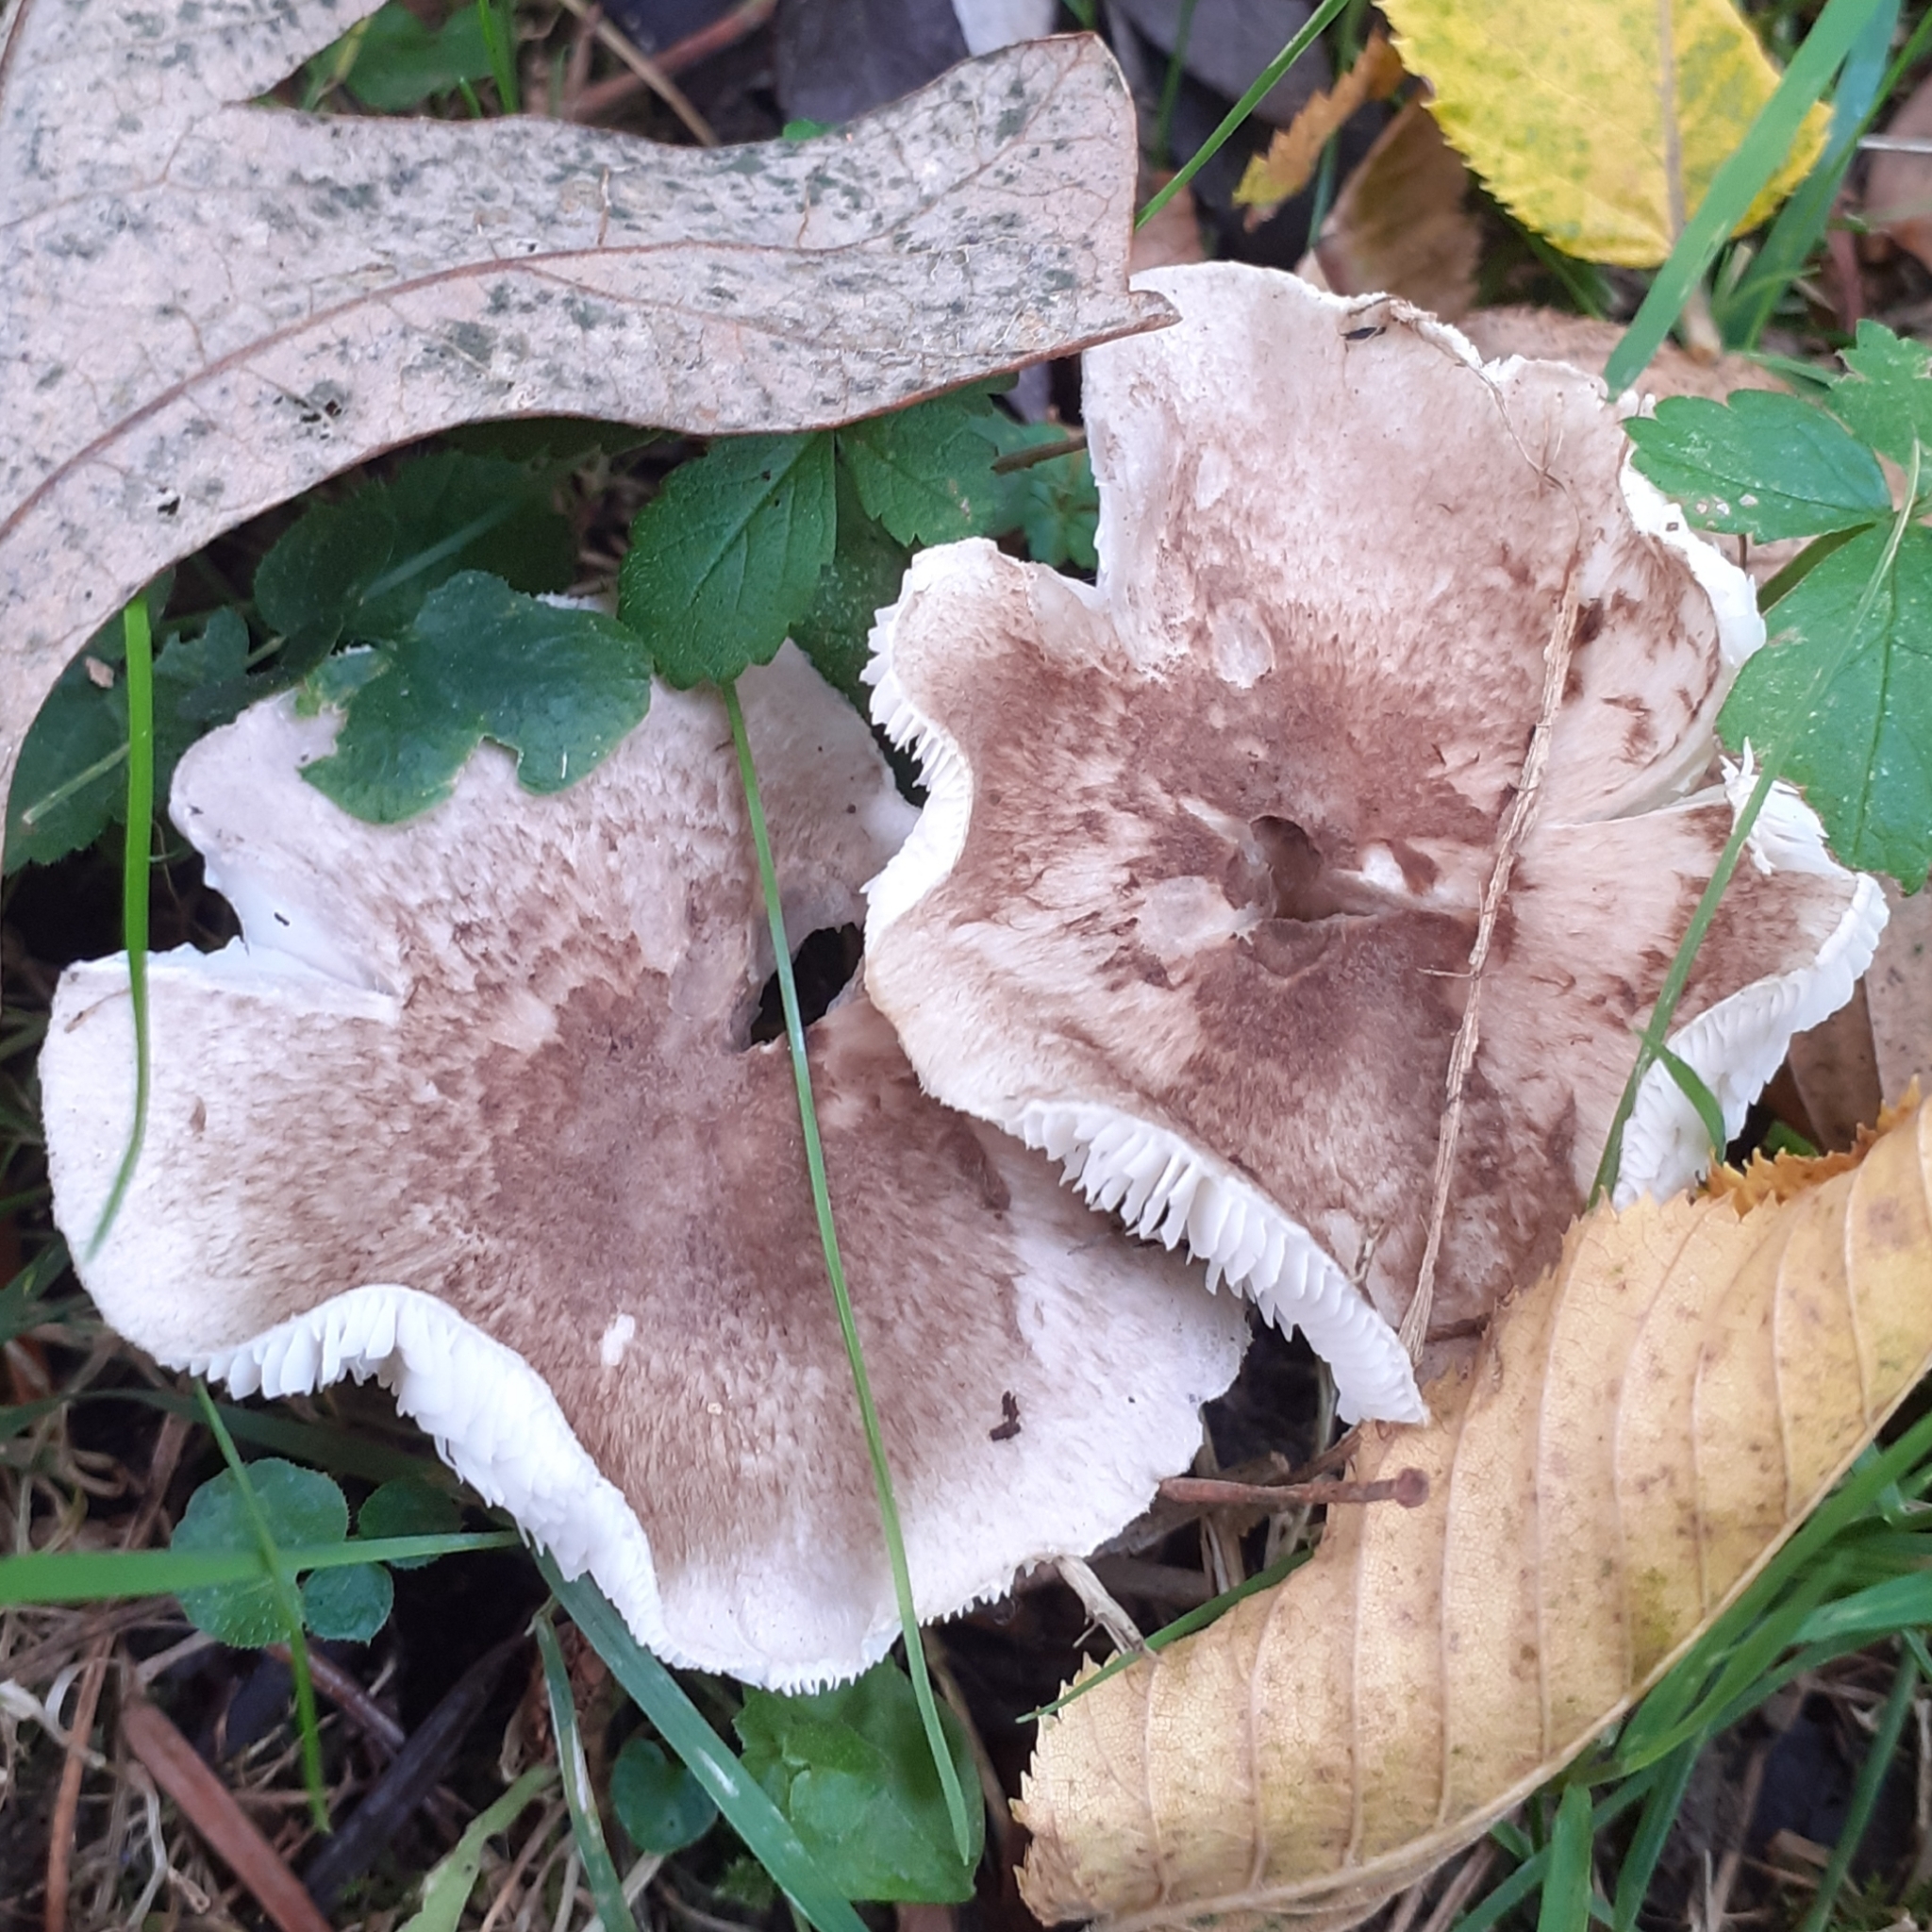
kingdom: Fungi
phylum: Basidiomycota
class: Agaricomycetes
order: Agaricales
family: Tricholomataceae
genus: Tricholoma
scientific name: Tricholoma scalpturatum
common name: Yellowing knight
